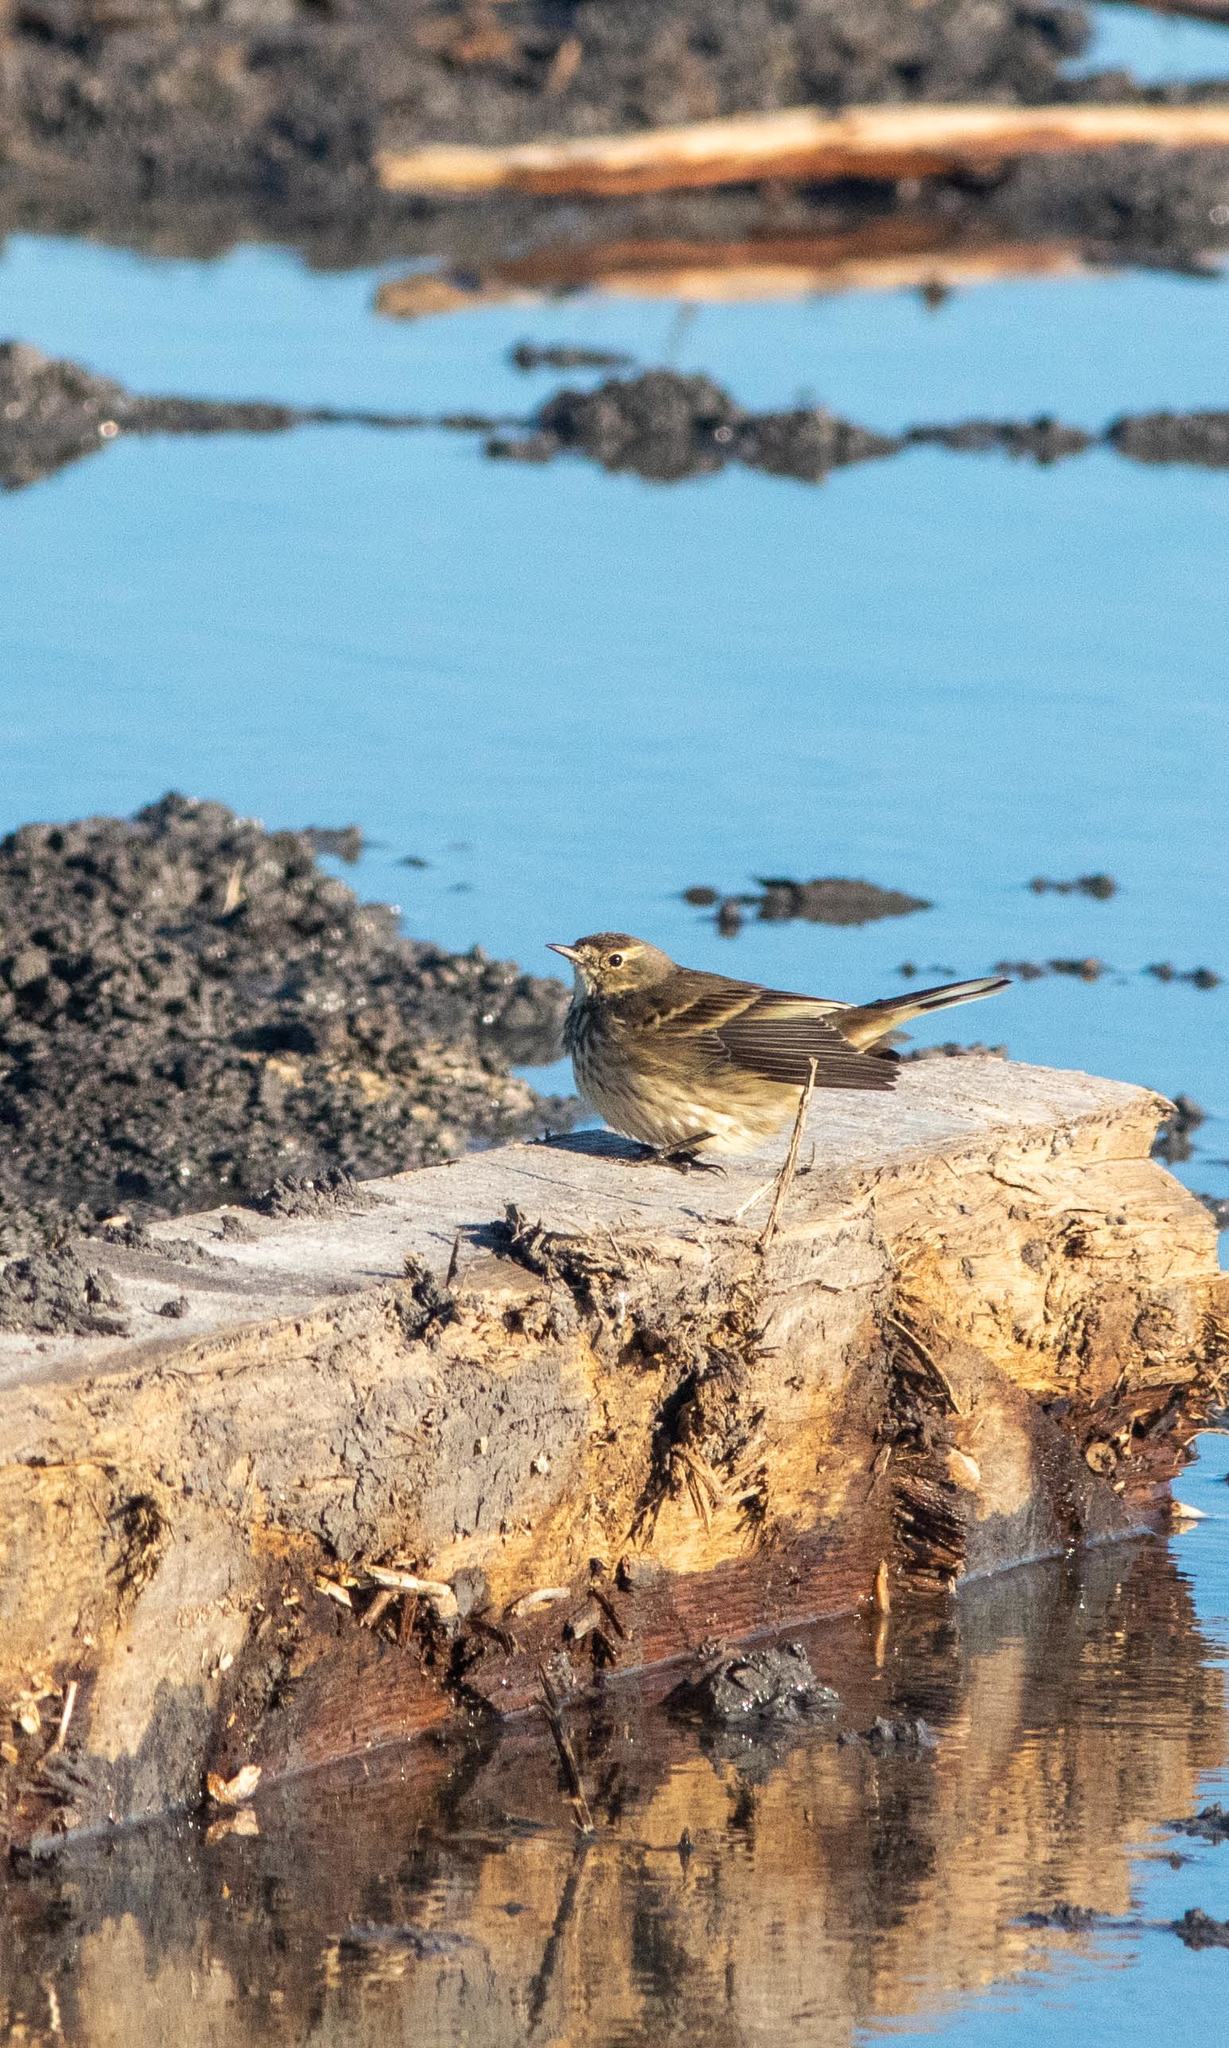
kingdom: Animalia
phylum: Chordata
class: Aves
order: Passeriformes
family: Motacillidae
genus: Anthus
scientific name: Anthus rubescens
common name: Buff-bellied pipit
